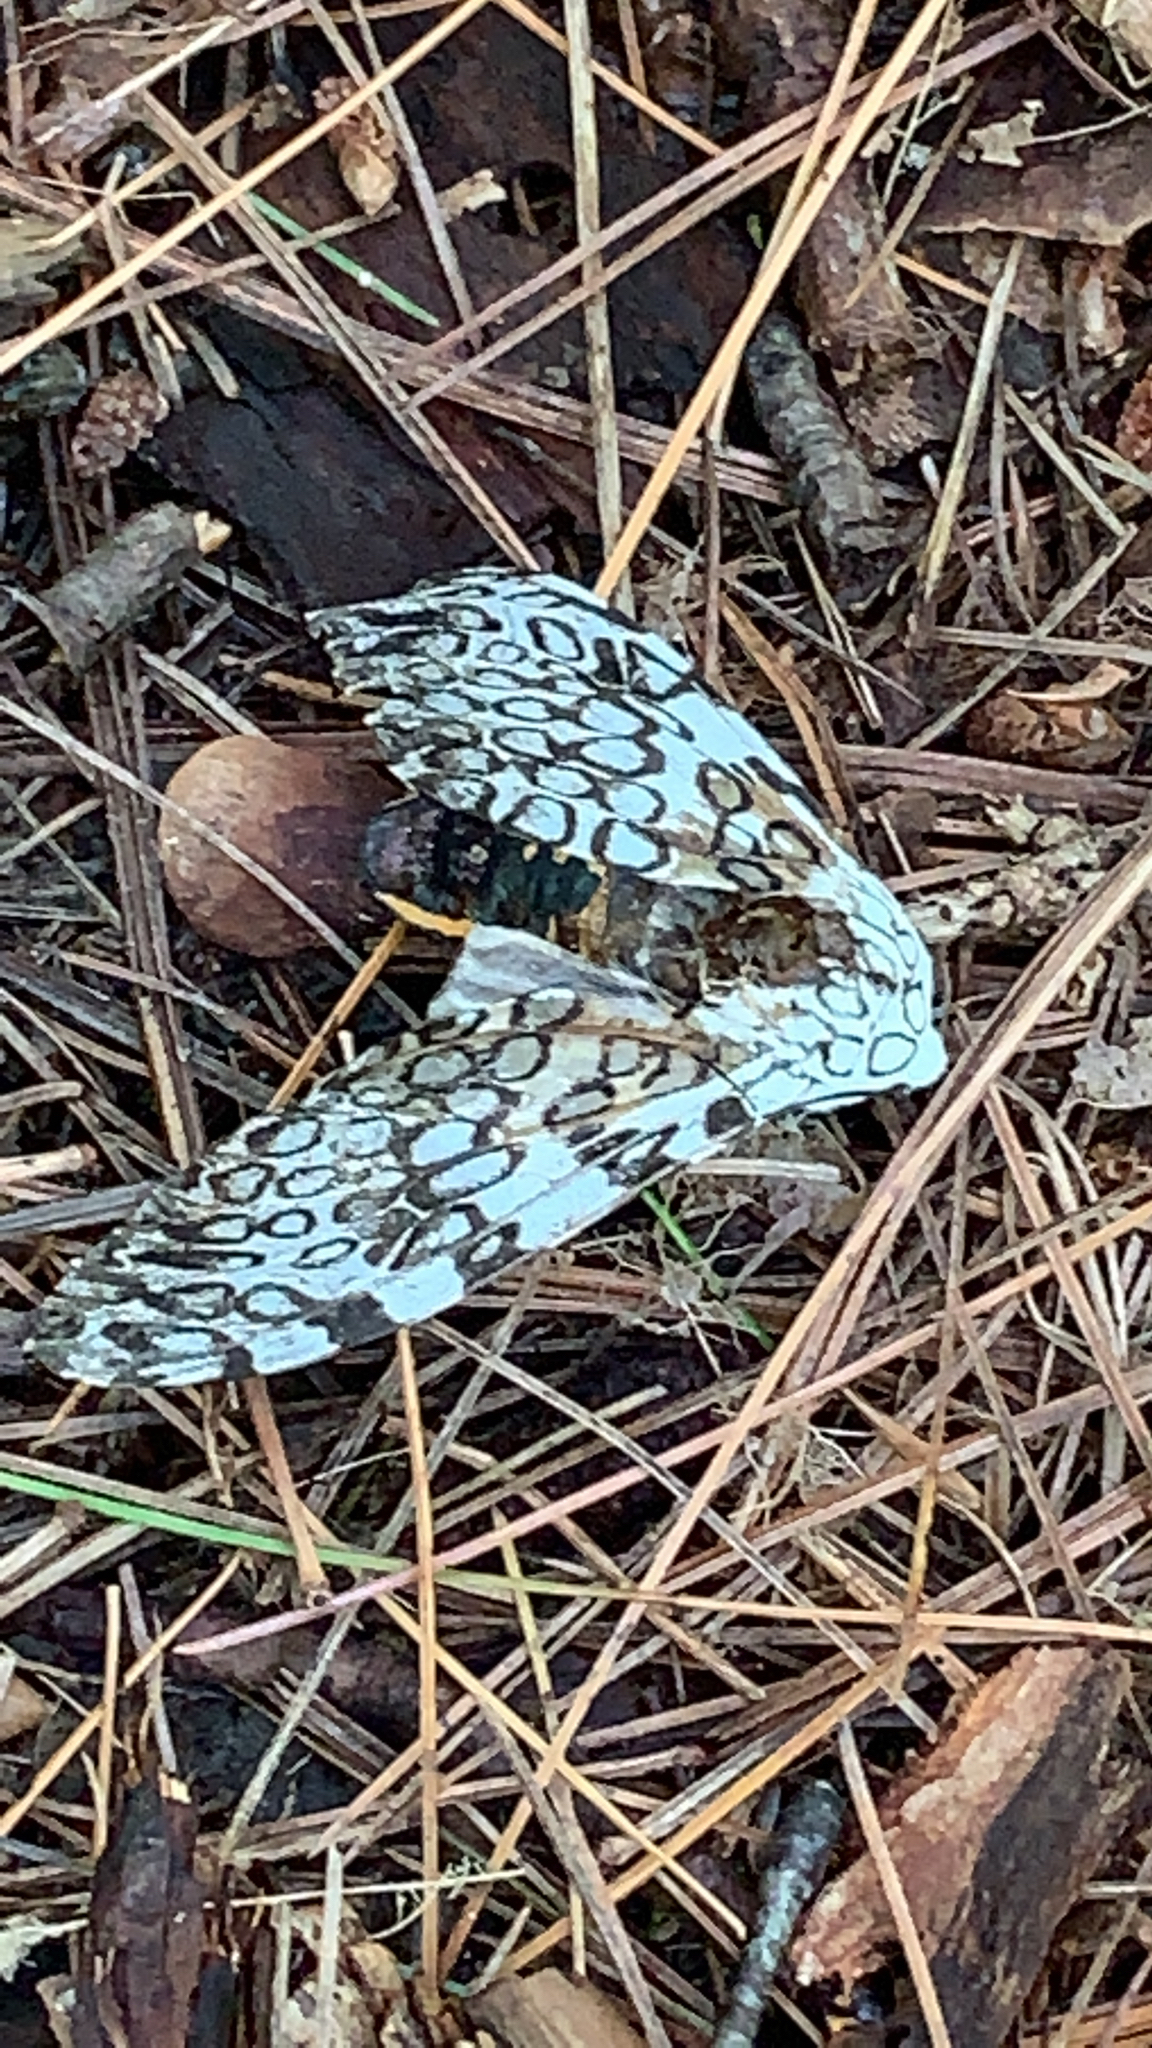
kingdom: Animalia
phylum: Arthropoda
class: Insecta
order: Lepidoptera
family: Erebidae
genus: Hypercompe
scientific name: Hypercompe scribonia
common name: Giant leopard moth
